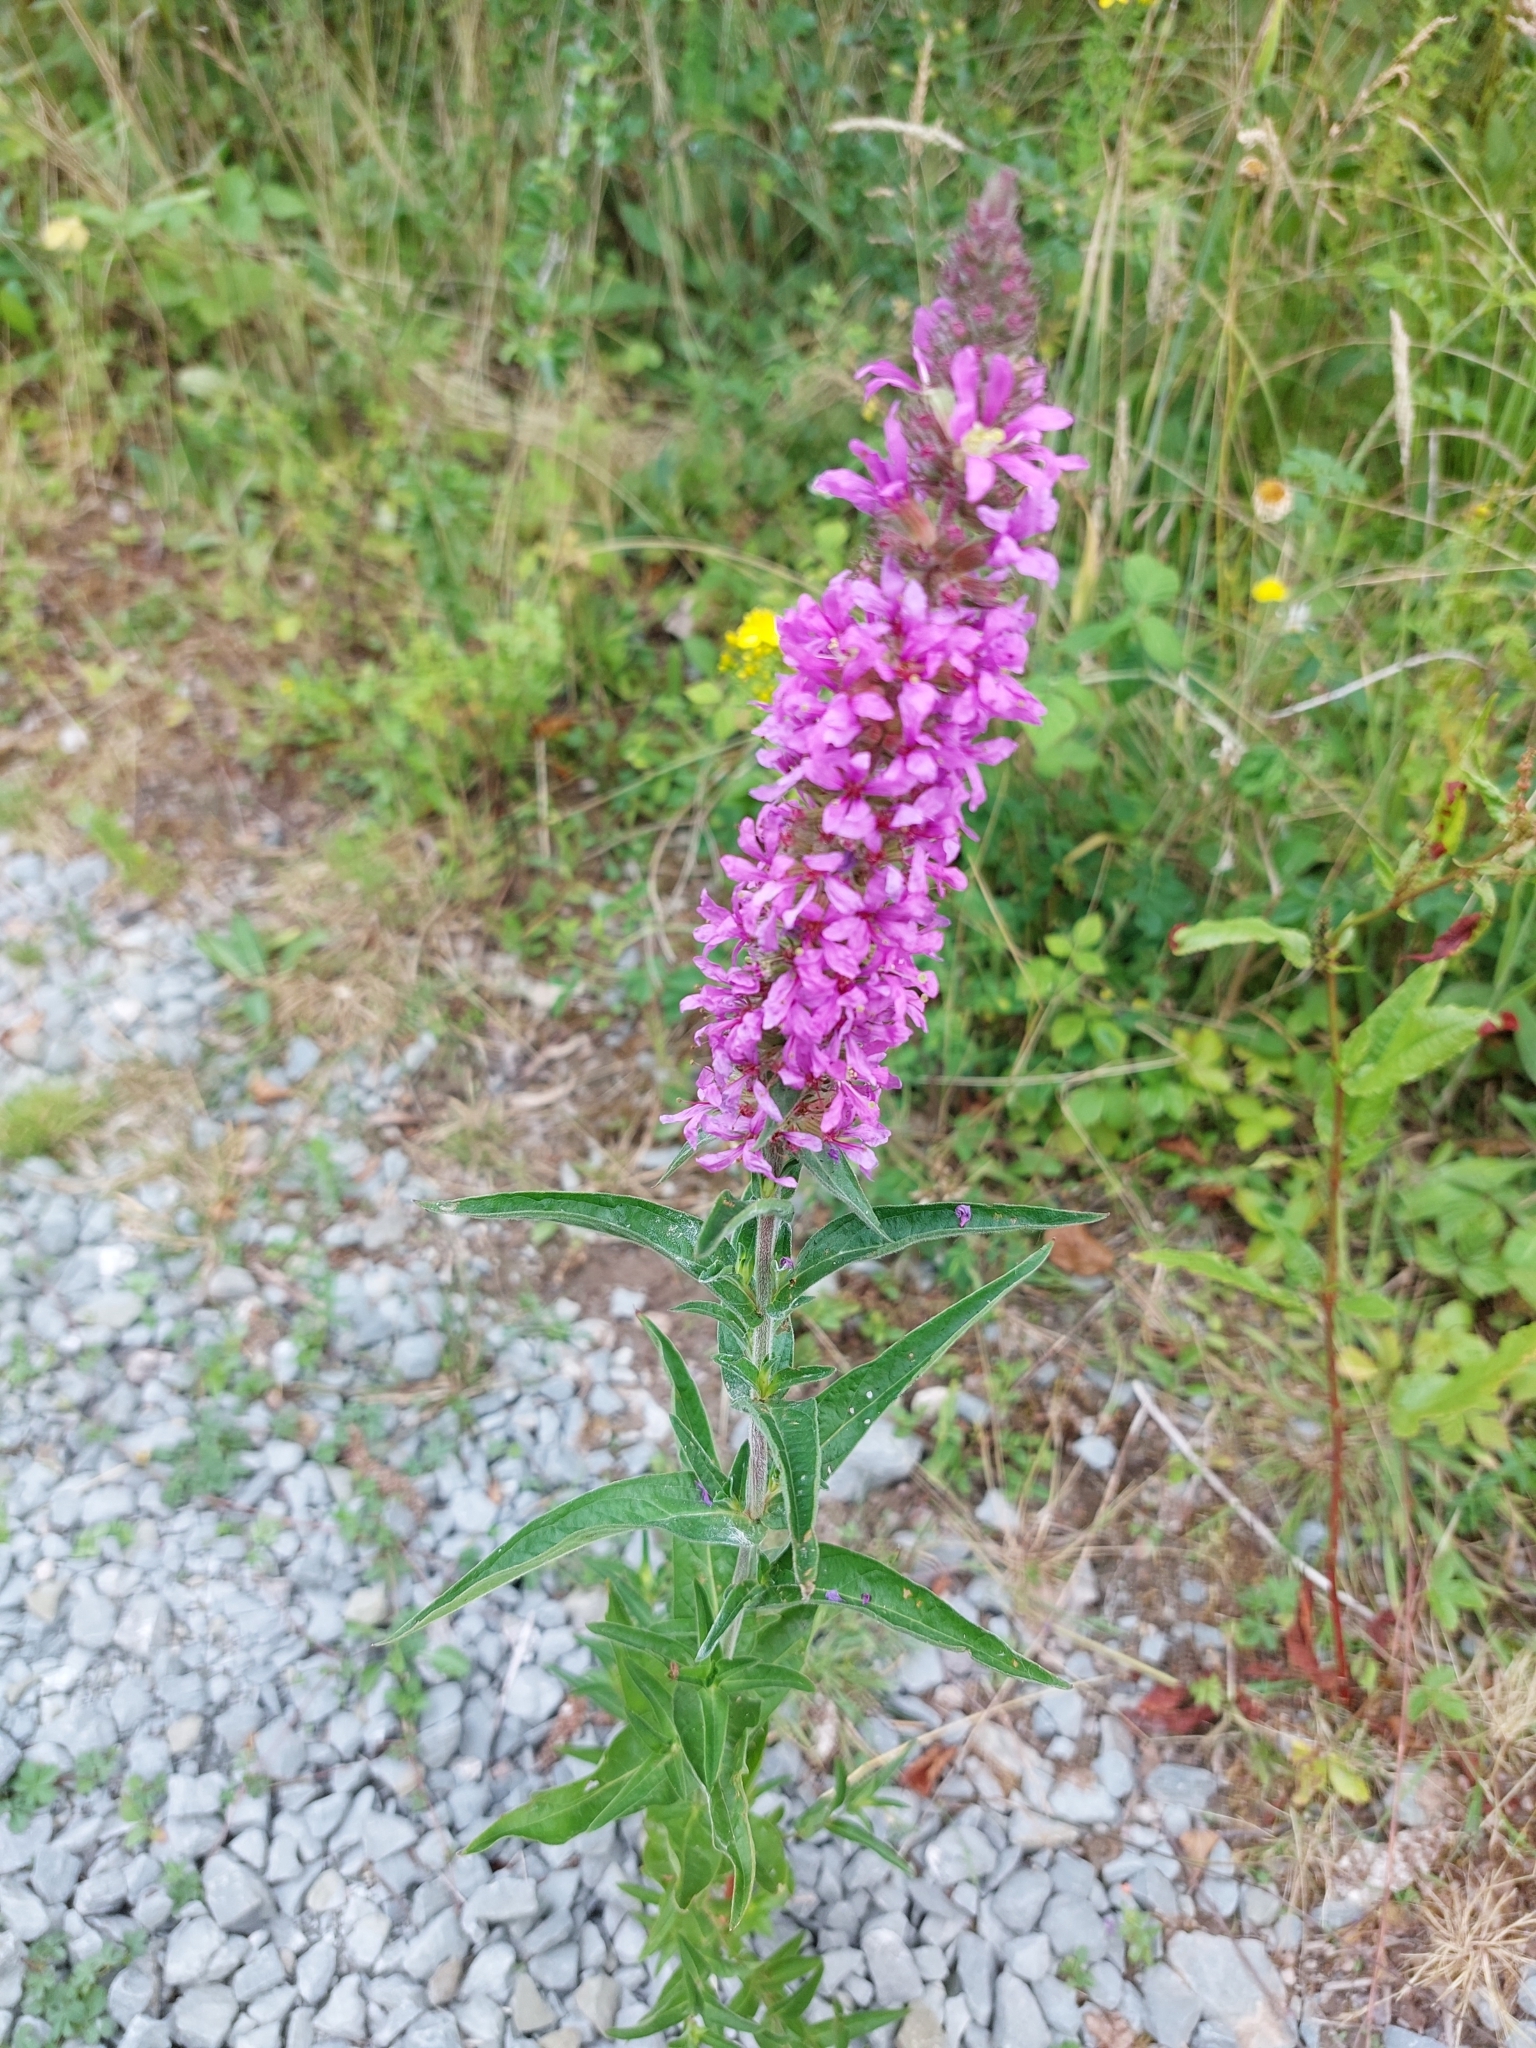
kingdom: Plantae
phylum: Tracheophyta
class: Magnoliopsida
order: Myrtales
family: Lythraceae
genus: Lythrum
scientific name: Lythrum salicaria
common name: Purple loosestrife
